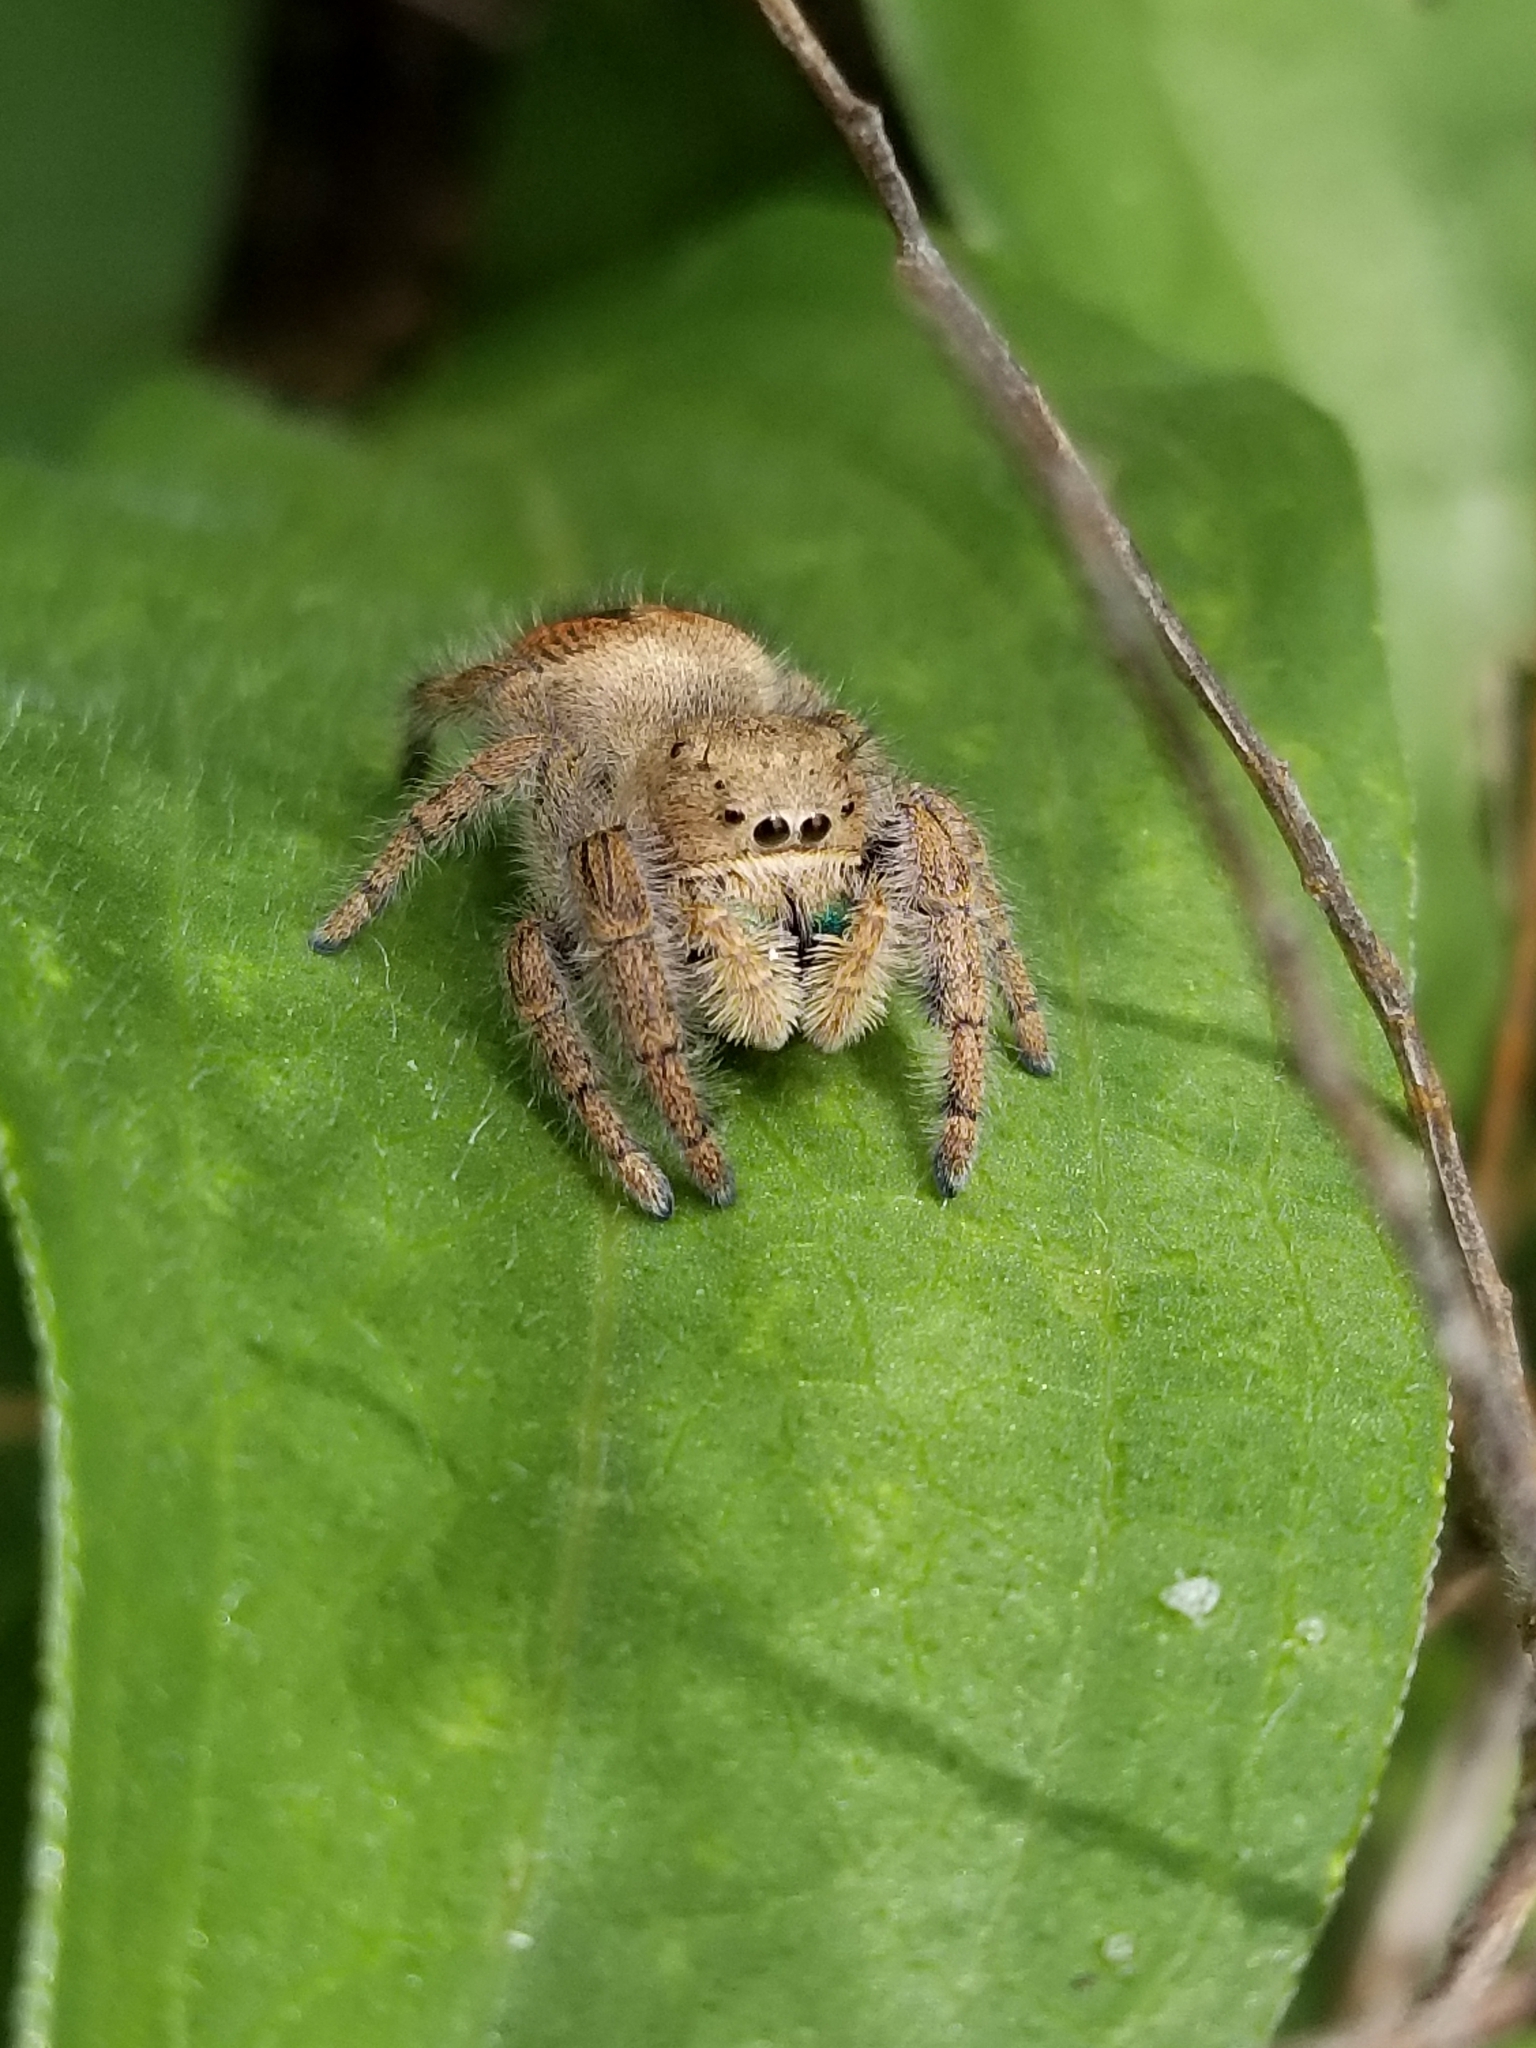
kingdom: Animalia
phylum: Arthropoda
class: Arachnida
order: Araneae
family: Salticidae
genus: Phidippus
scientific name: Phidippus texanus
